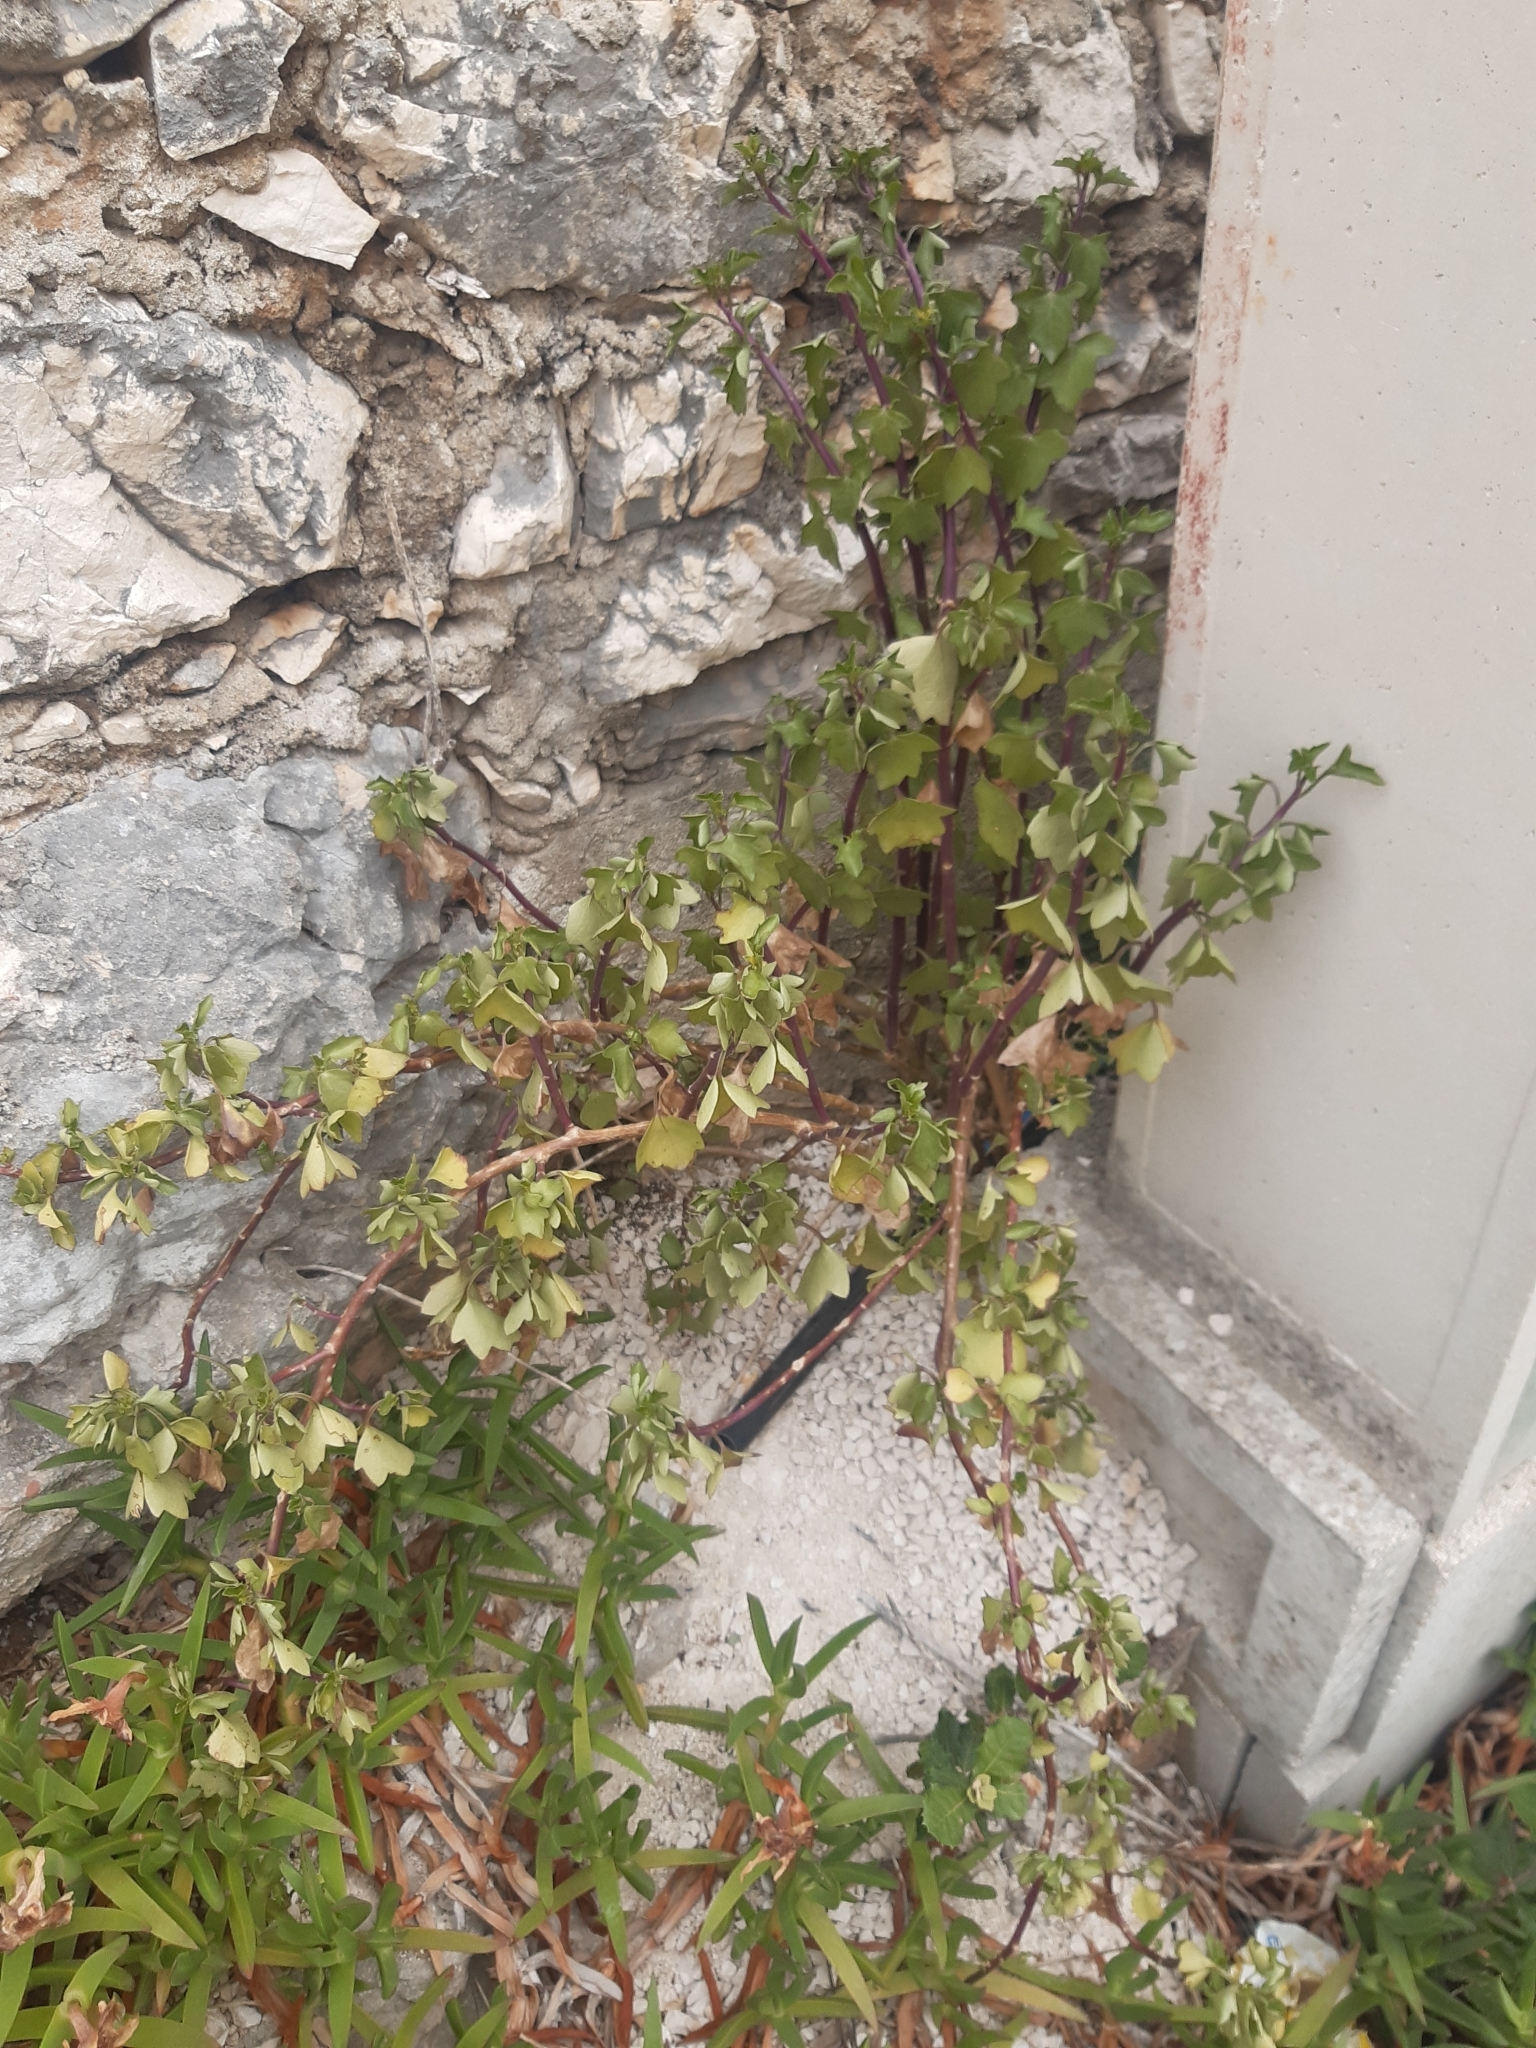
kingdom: Plantae
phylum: Tracheophyta
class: Magnoliopsida
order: Asterales
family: Asteraceae
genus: Senecio
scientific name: Senecio angulatus
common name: Climbing groundsel
